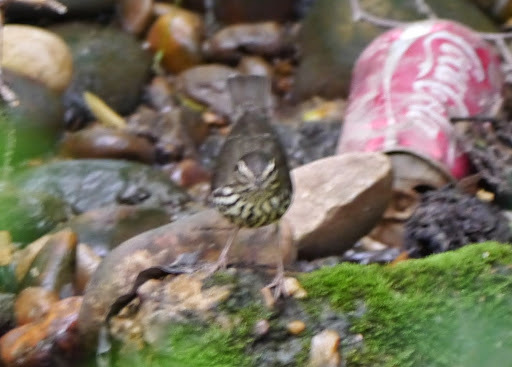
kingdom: Animalia
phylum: Chordata
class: Aves
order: Passeriformes
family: Parulidae
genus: Parkesia
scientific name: Parkesia noveboracensis
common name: Northern waterthrush
